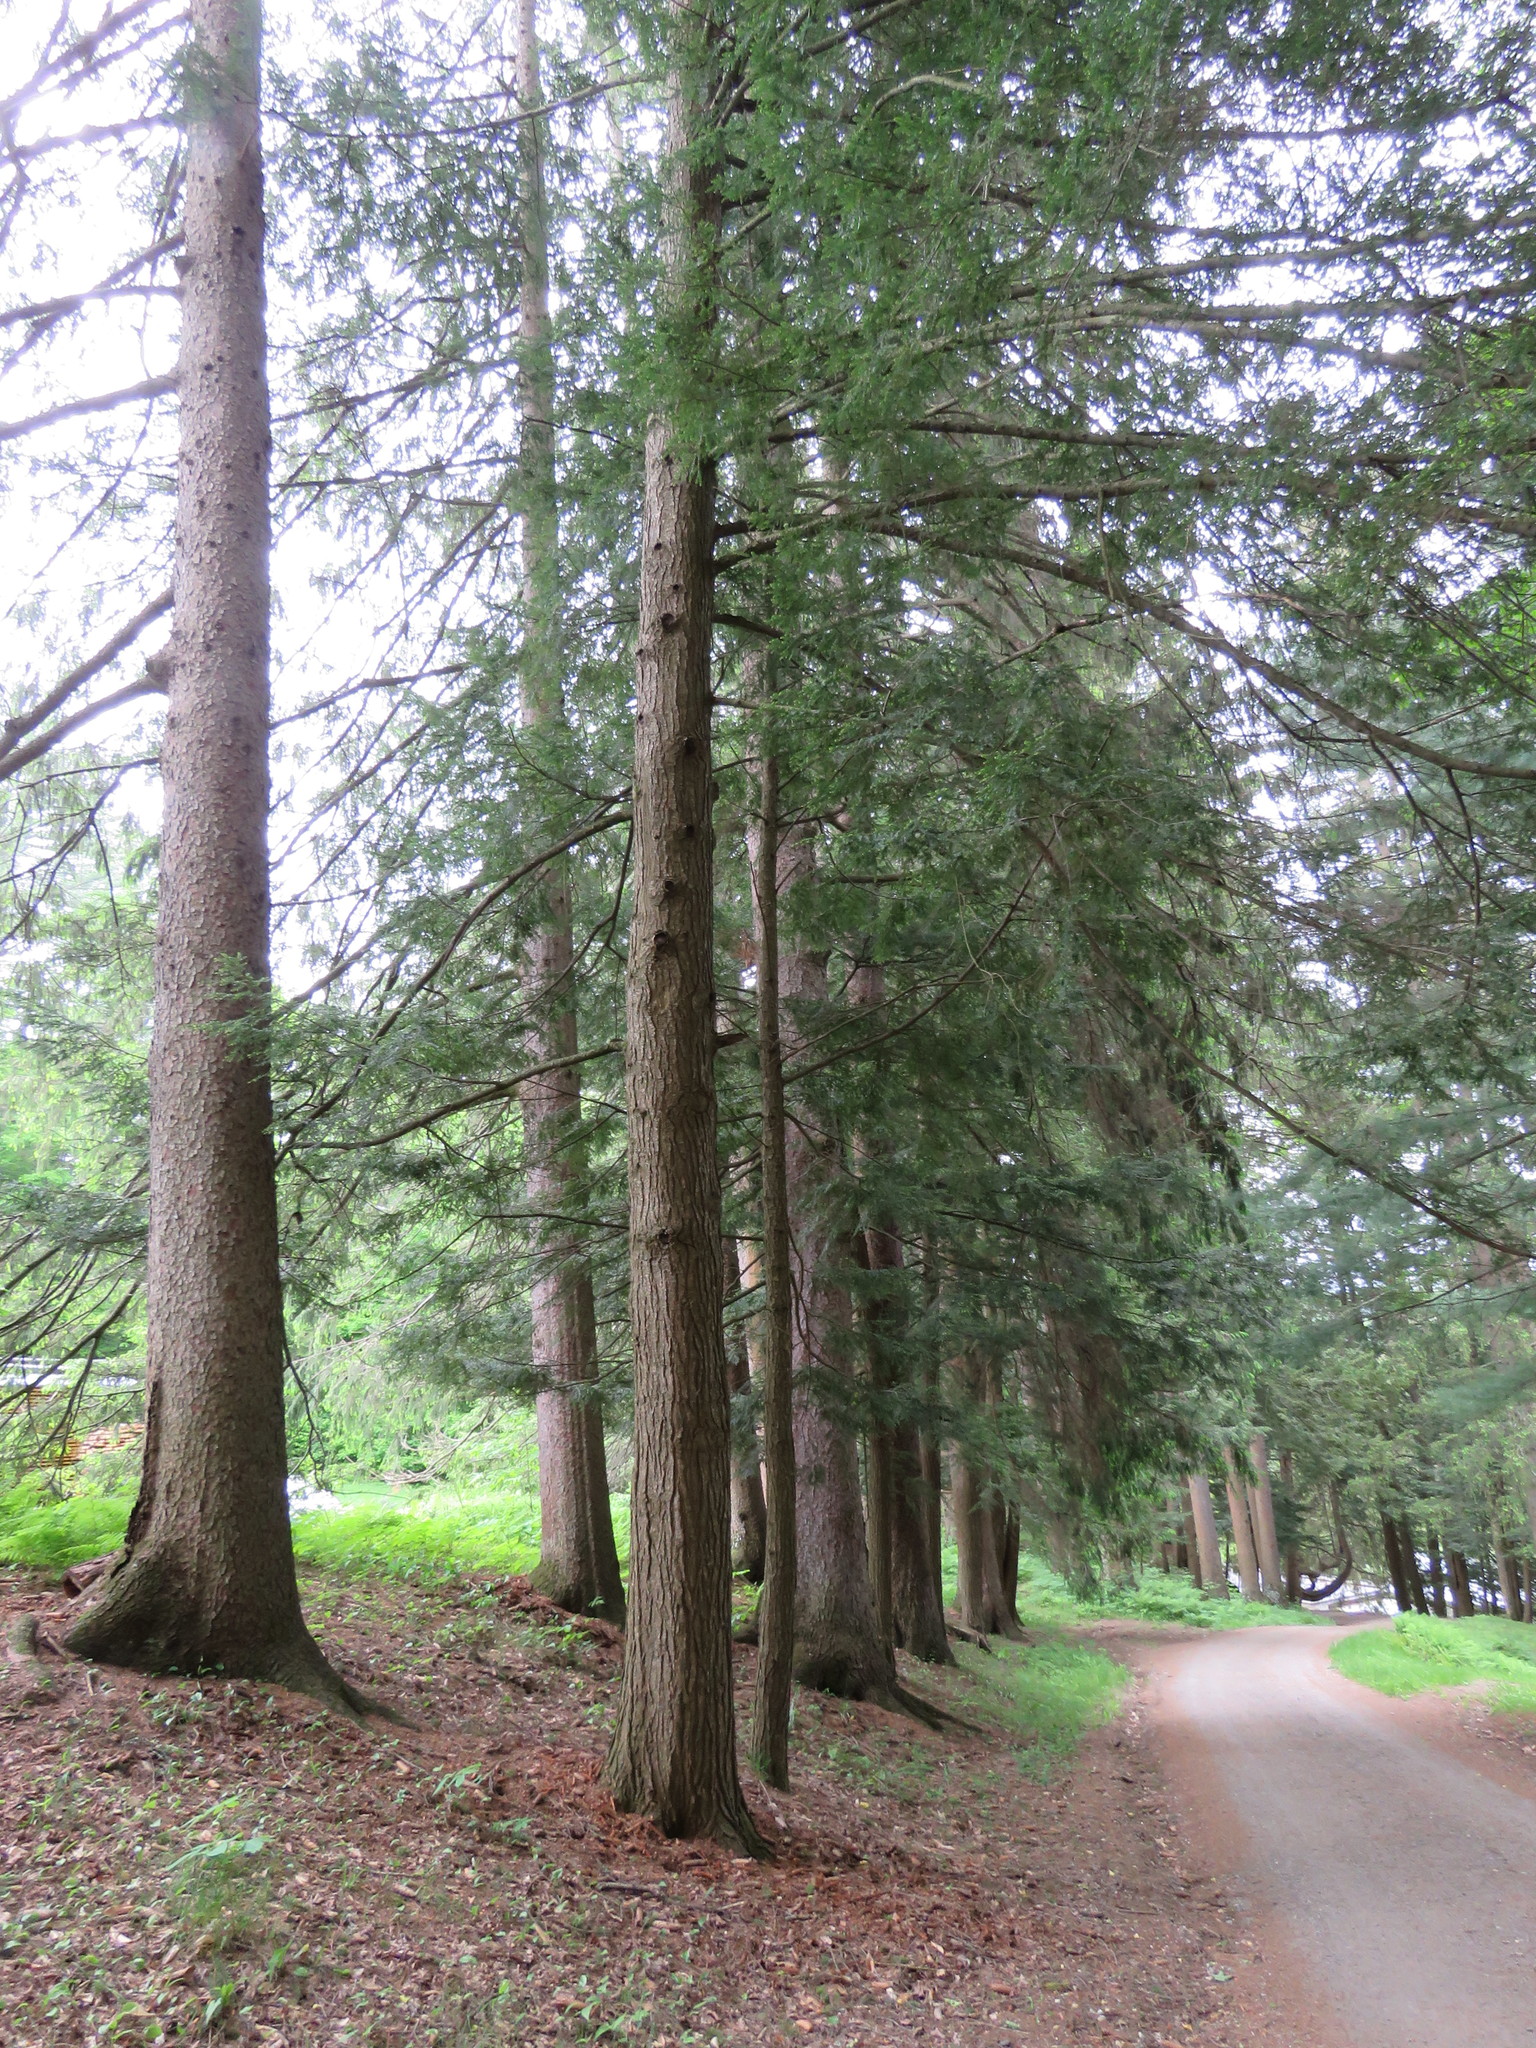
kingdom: Plantae
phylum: Tracheophyta
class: Pinopsida
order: Pinales
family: Pinaceae
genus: Tsuga
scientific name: Tsuga canadensis
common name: Eastern hemlock
